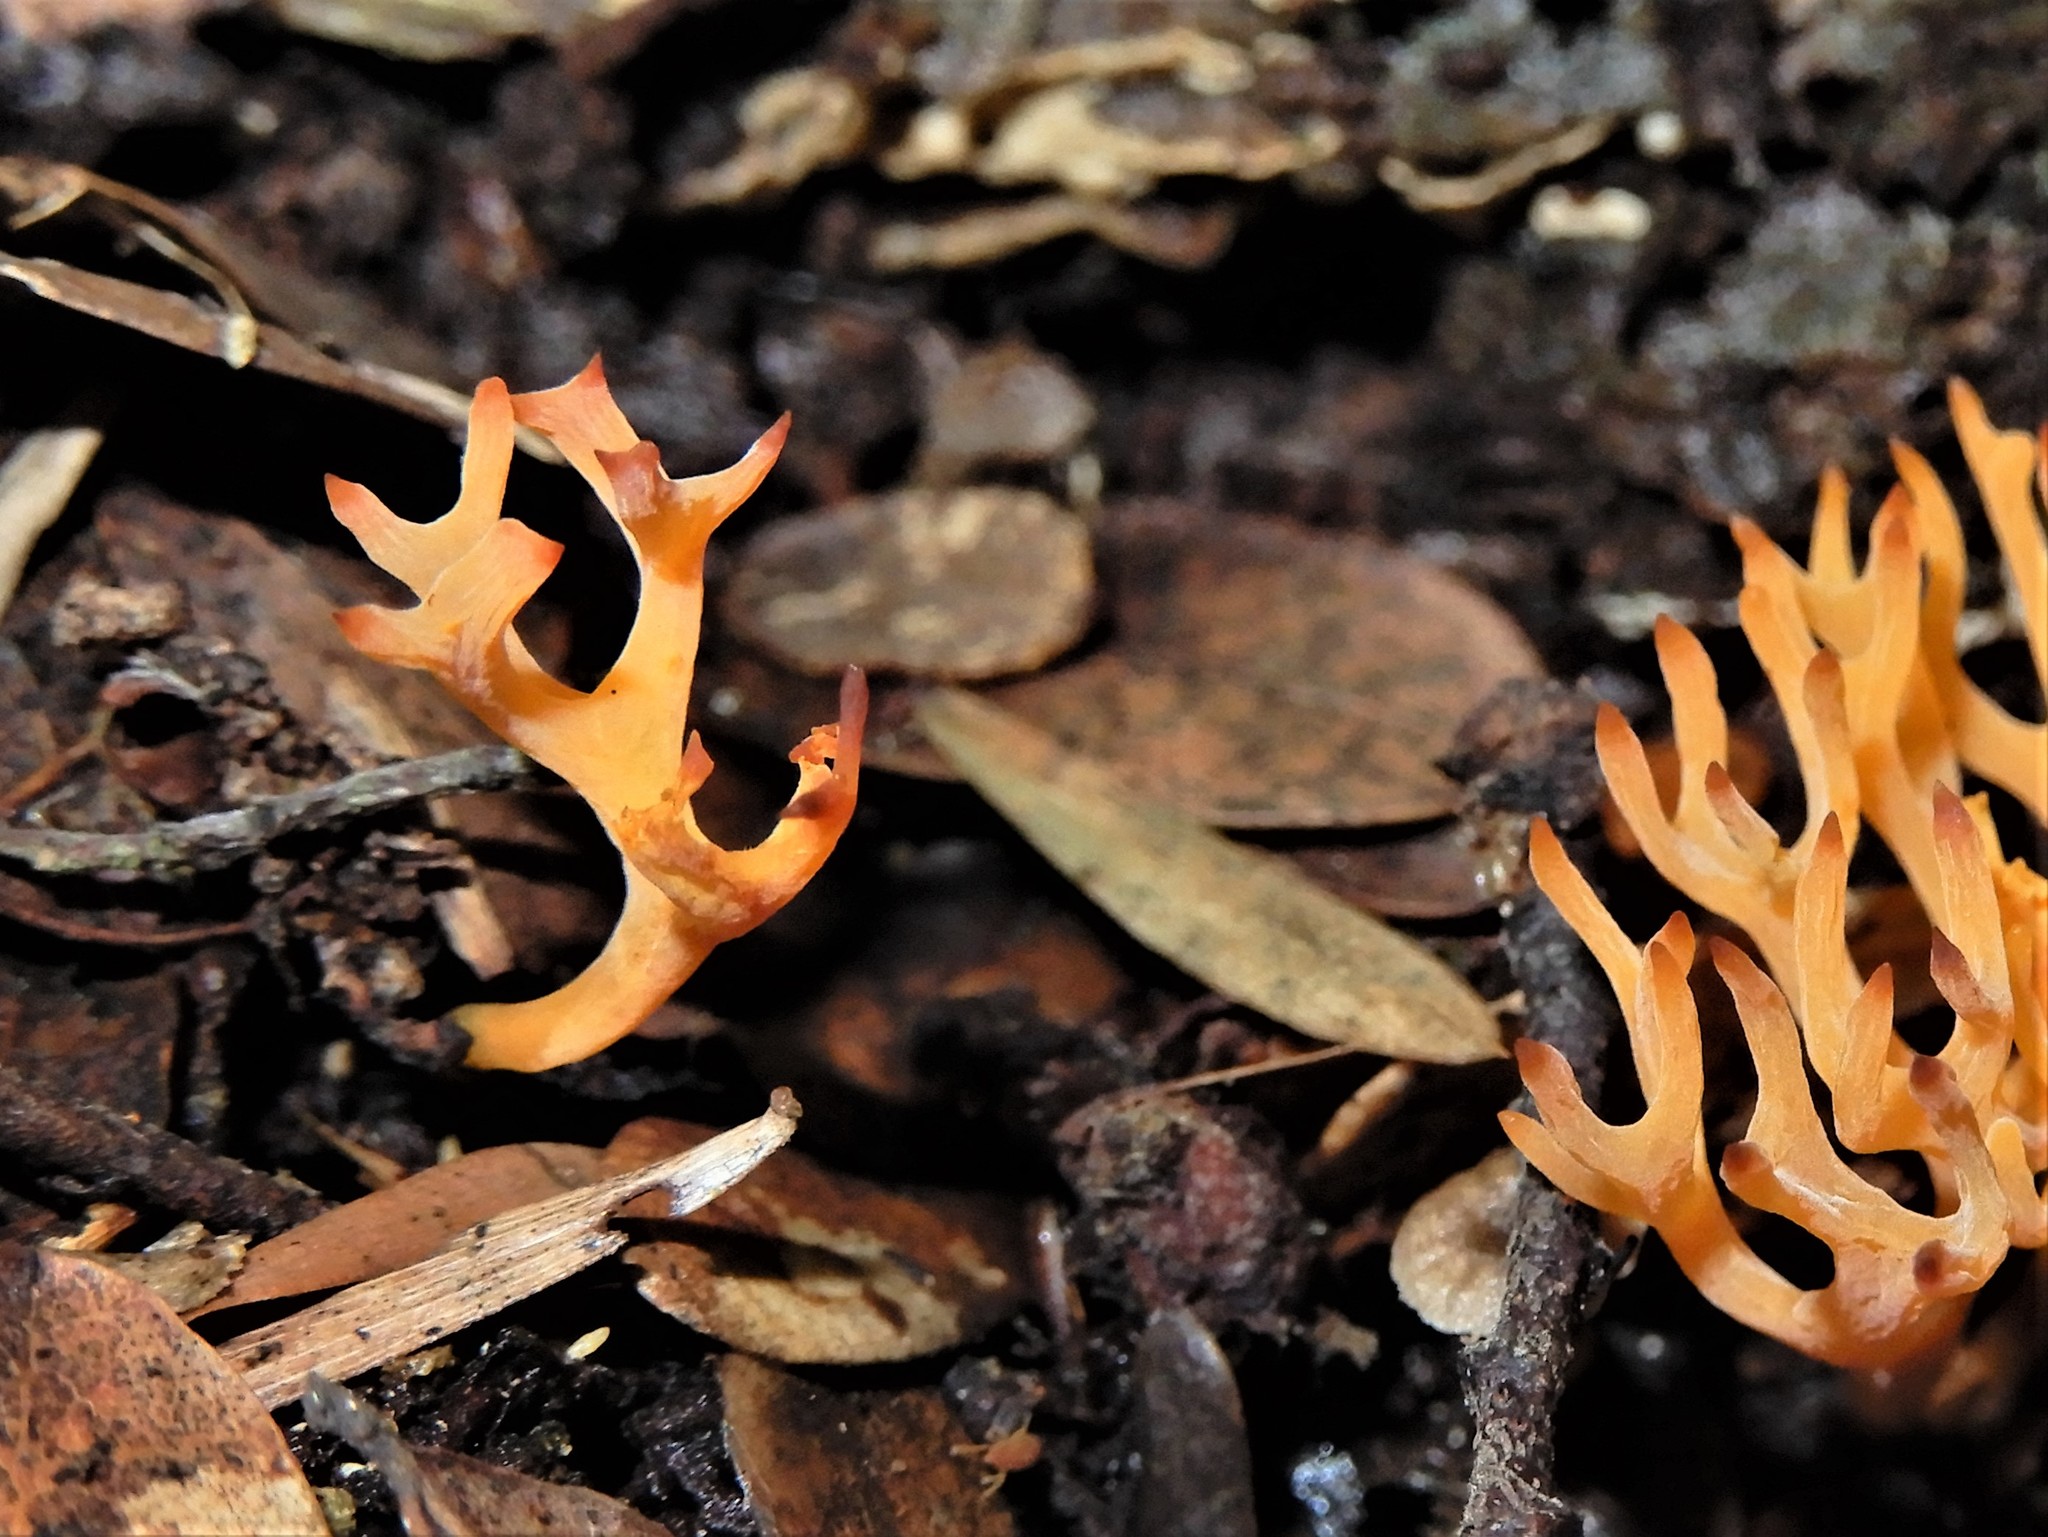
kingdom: Fungi
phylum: Basidiomycota
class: Agaricomycetes
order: Agaricales
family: Clavariaceae
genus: Ramariopsis
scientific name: Ramariopsis
